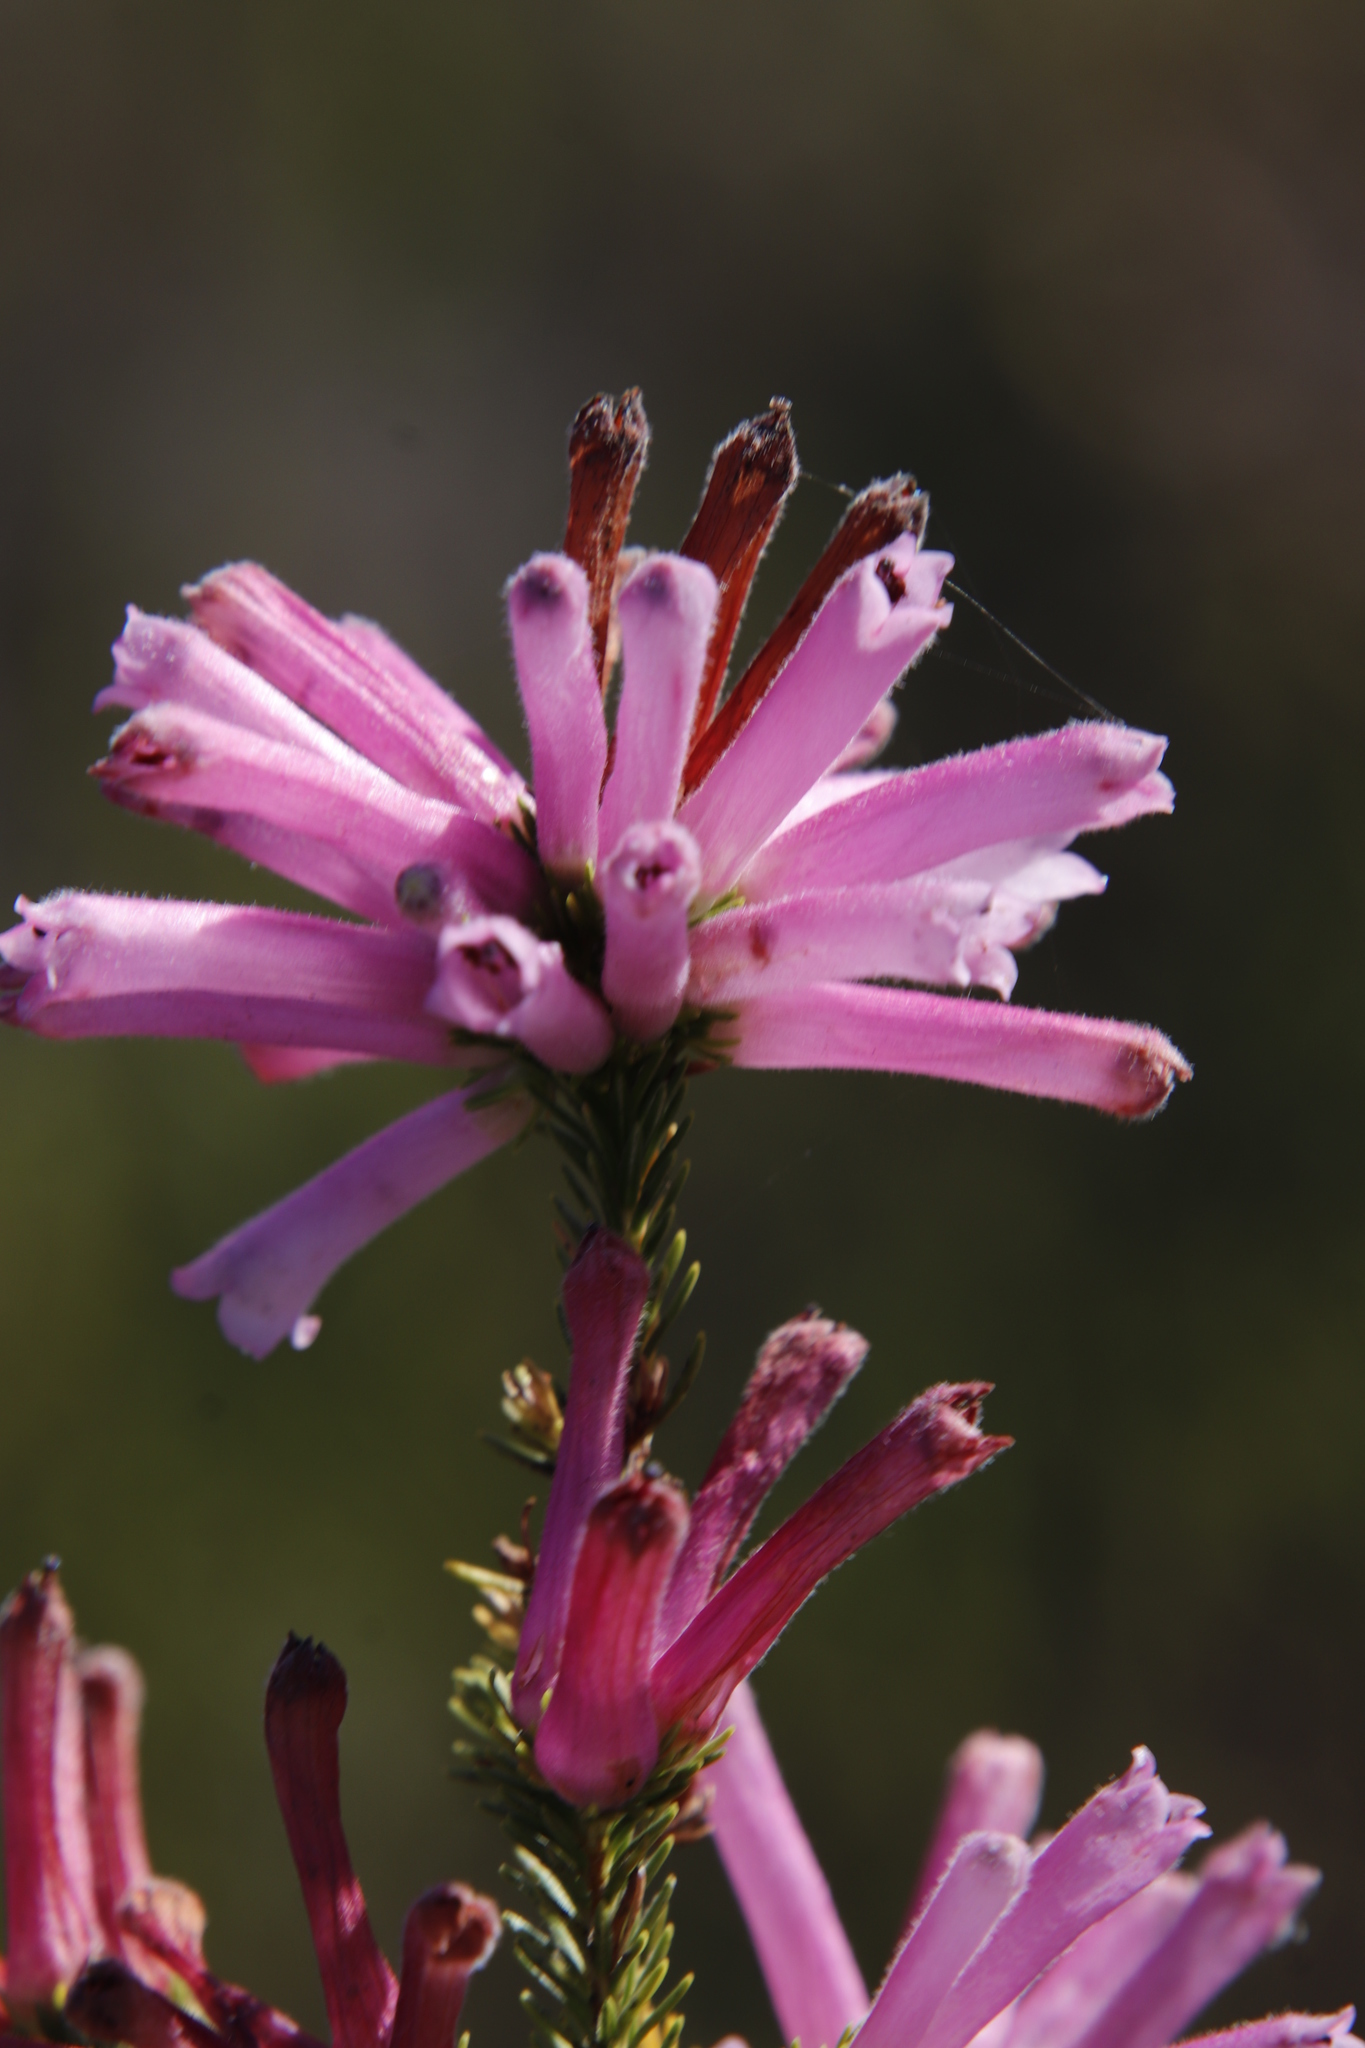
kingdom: Plantae
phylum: Tracheophyta
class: Magnoliopsida
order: Ericales
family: Ericaceae
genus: Erica
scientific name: Erica verticillata
